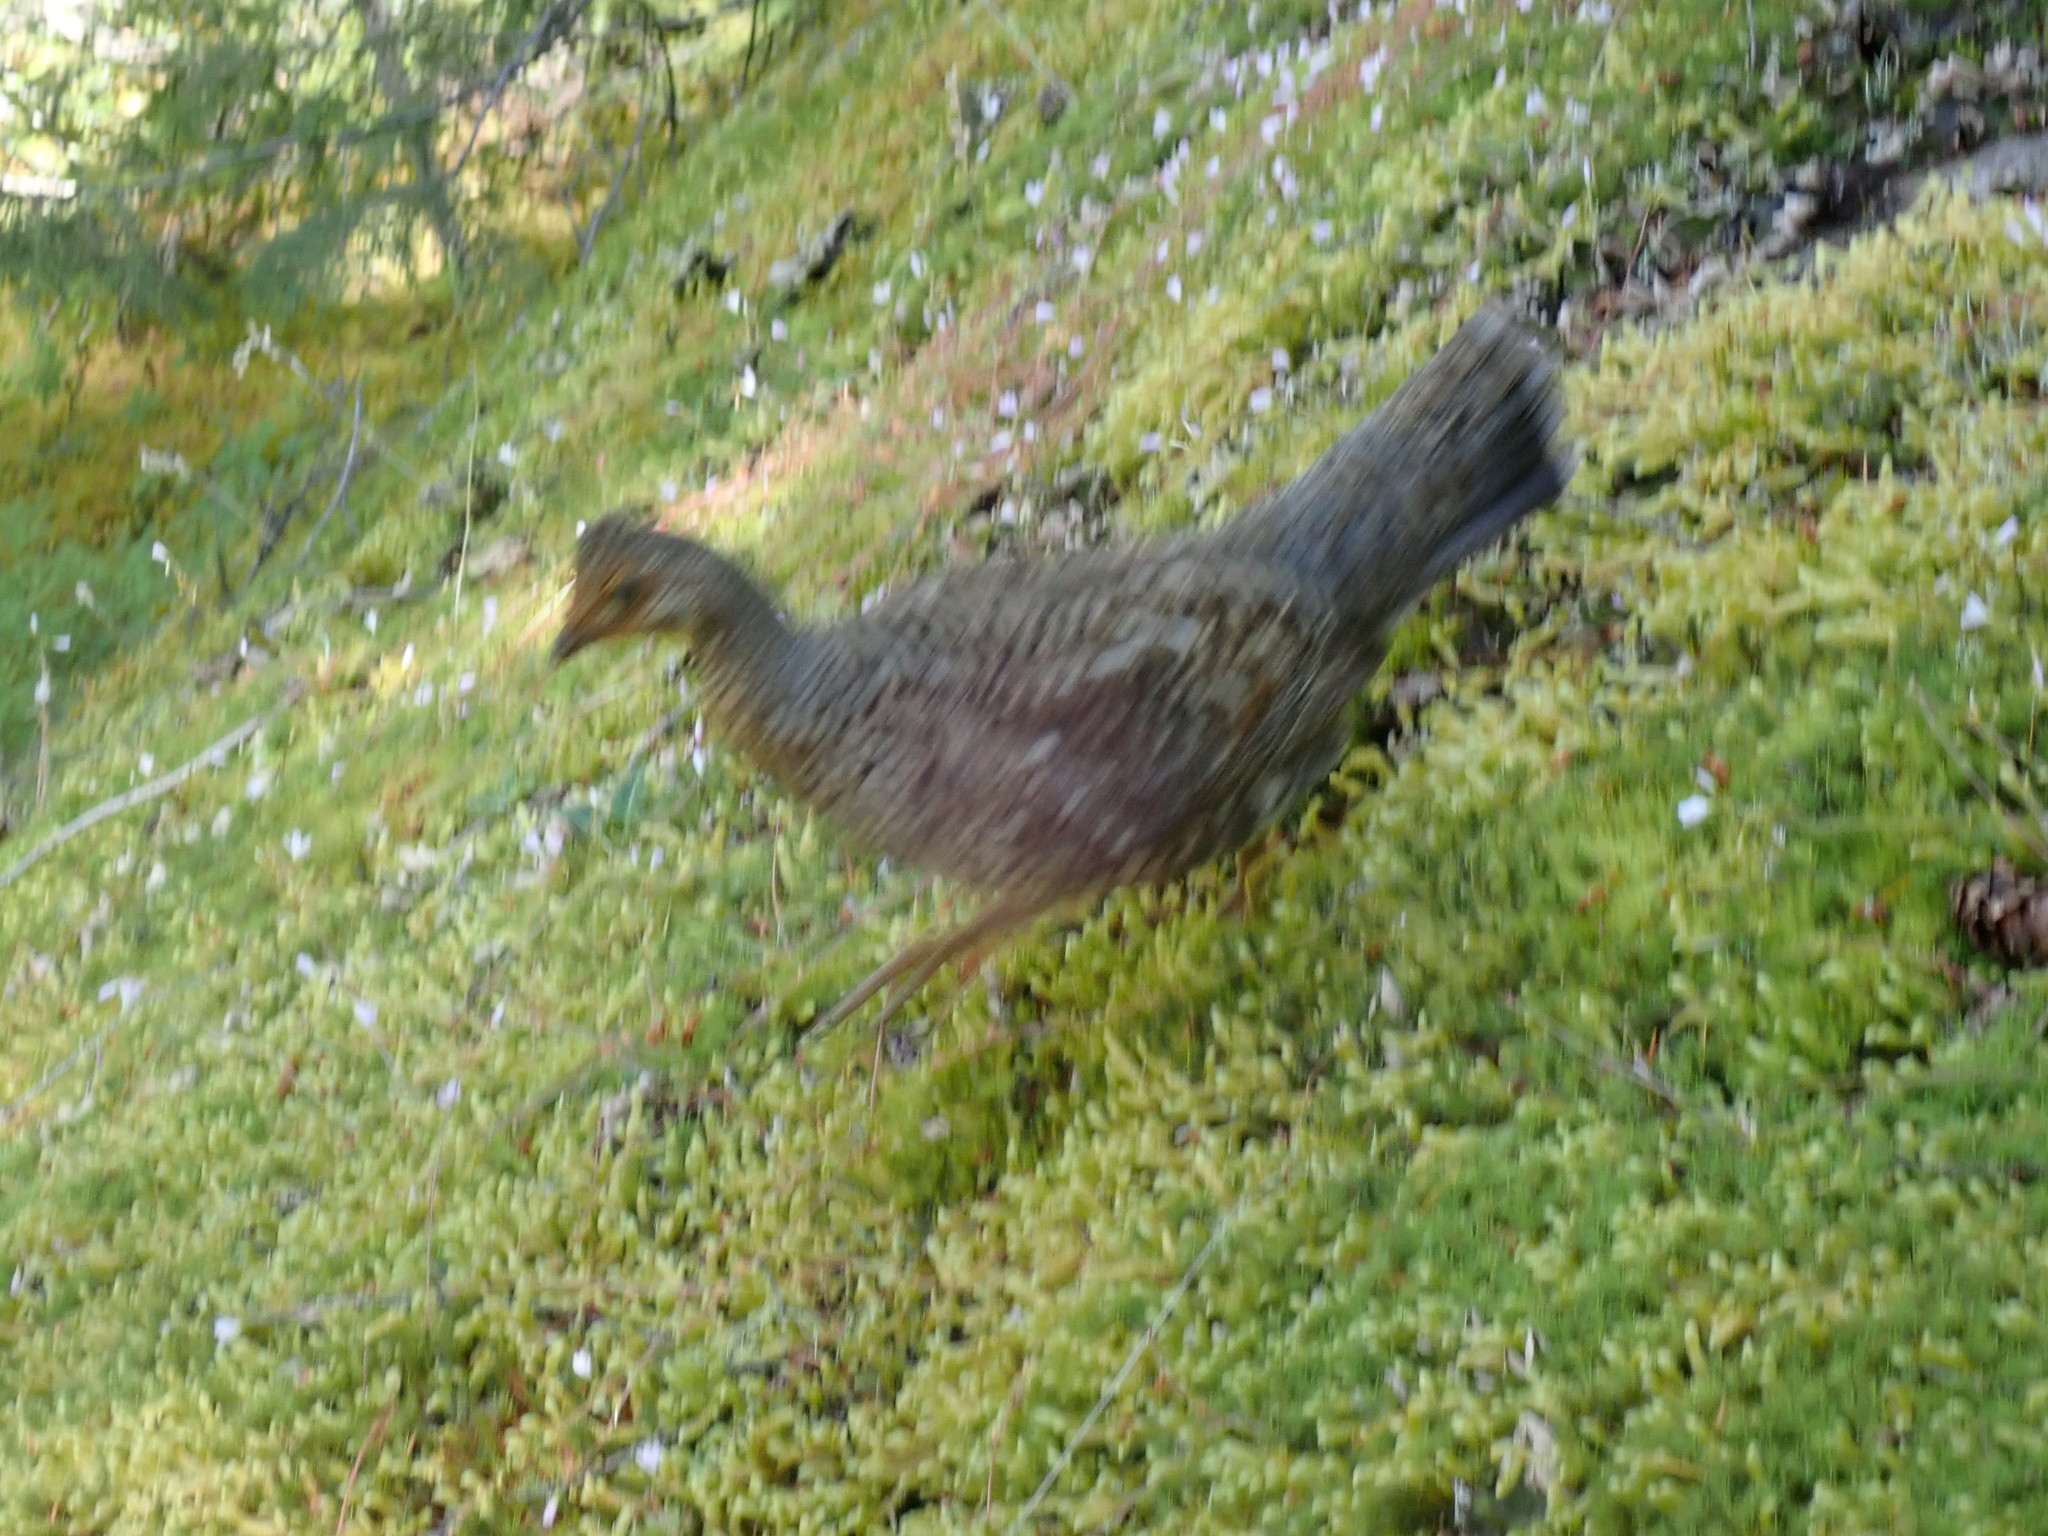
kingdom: Animalia
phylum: Chordata
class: Aves
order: Galliformes
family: Phasianidae
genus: Dendragapus
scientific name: Dendragapus fuliginosus
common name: Sooty grouse
